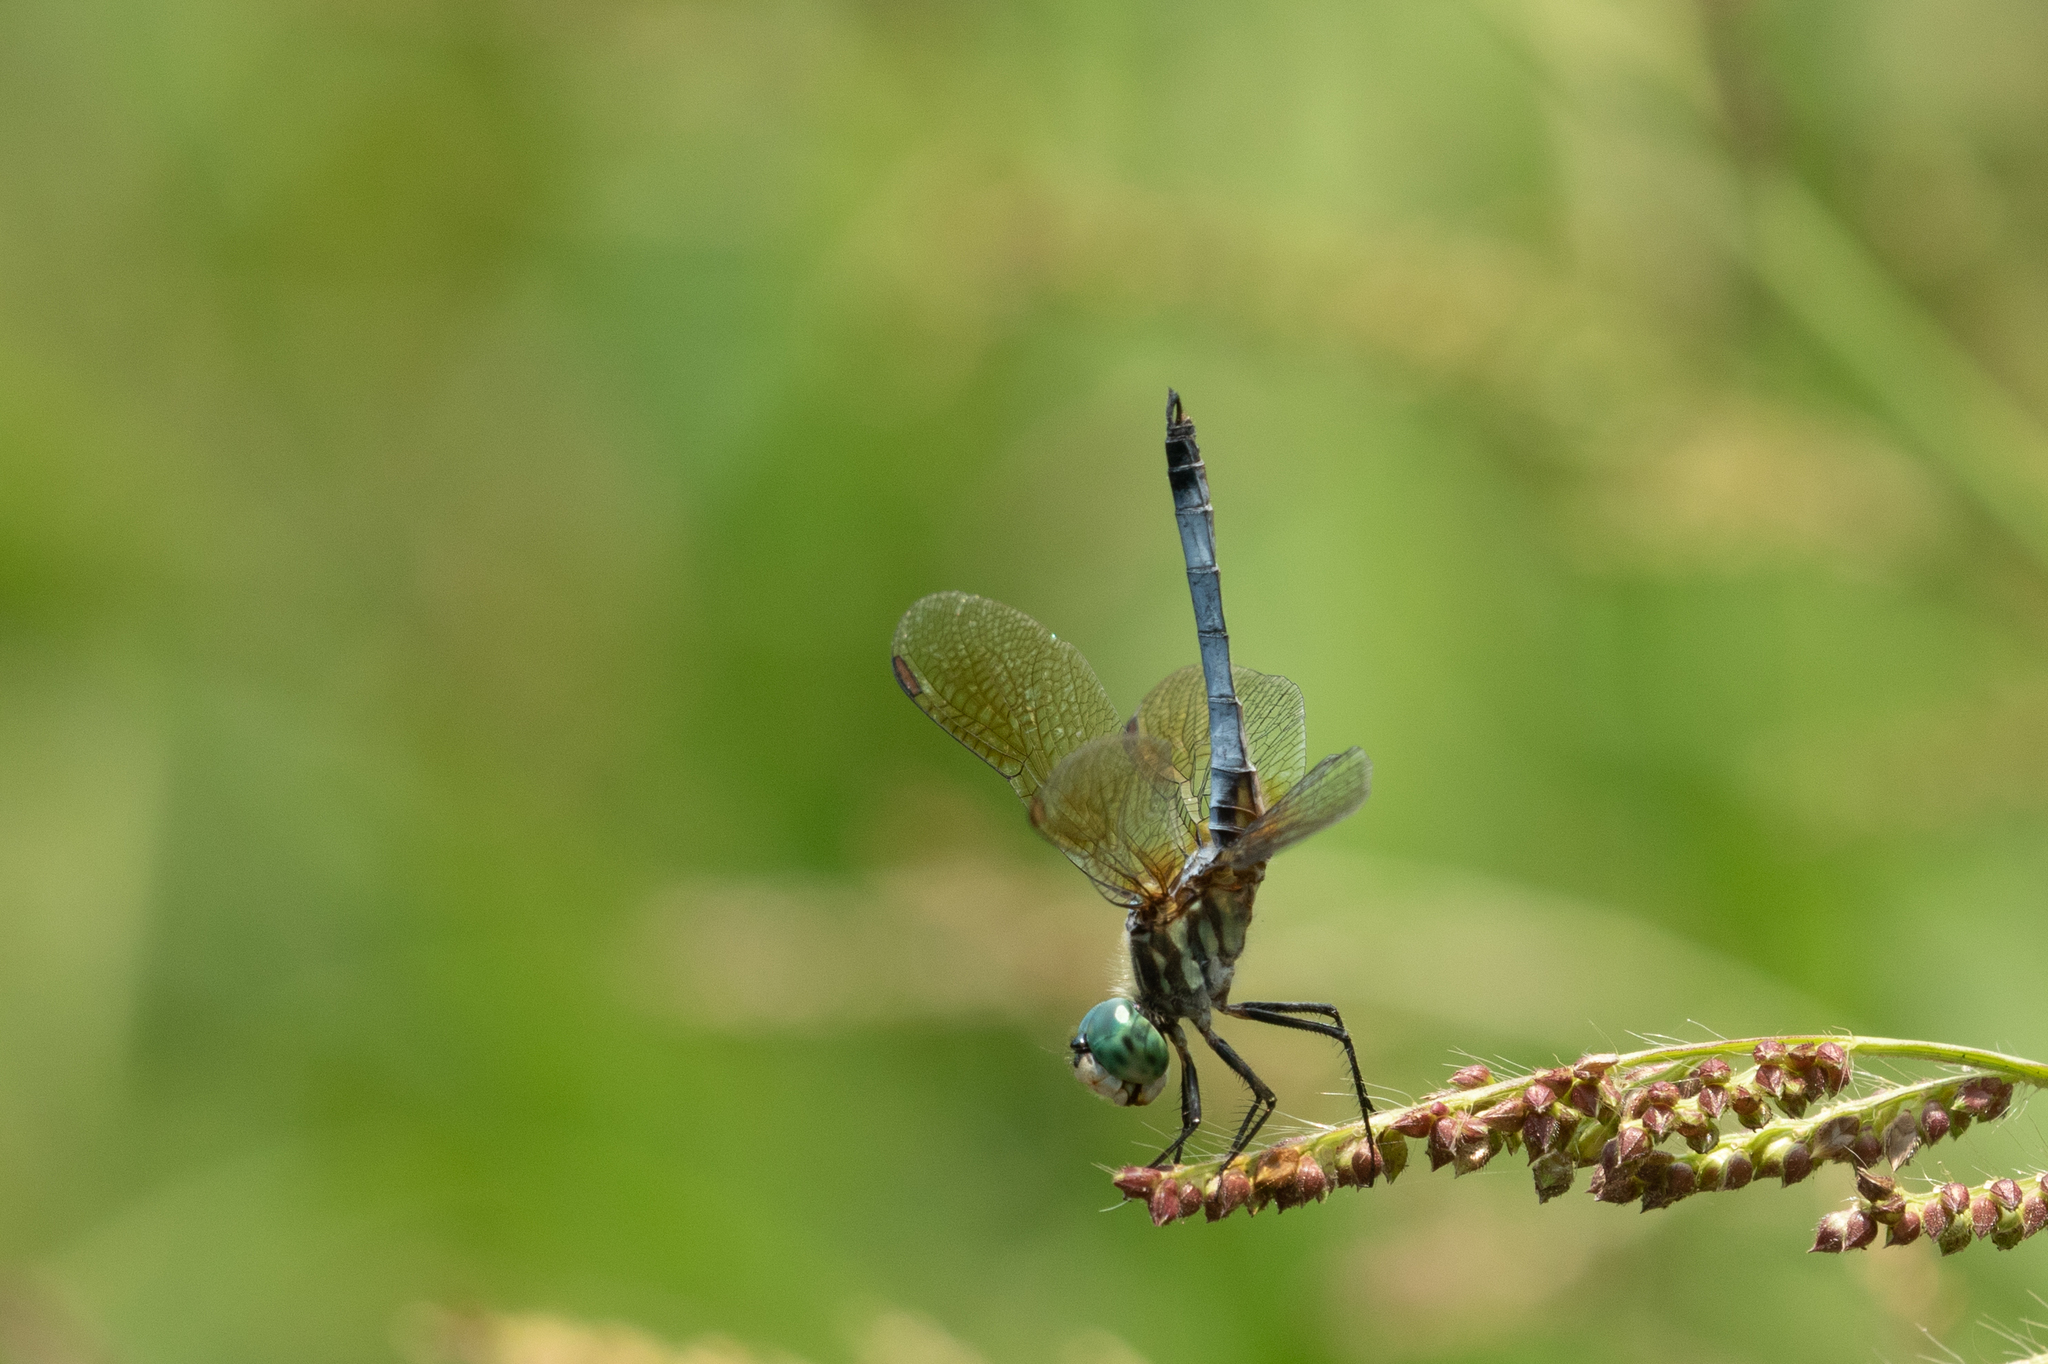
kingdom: Animalia
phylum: Arthropoda
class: Insecta
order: Odonata
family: Libellulidae
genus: Pachydiplax
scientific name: Pachydiplax longipennis
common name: Blue dasher
